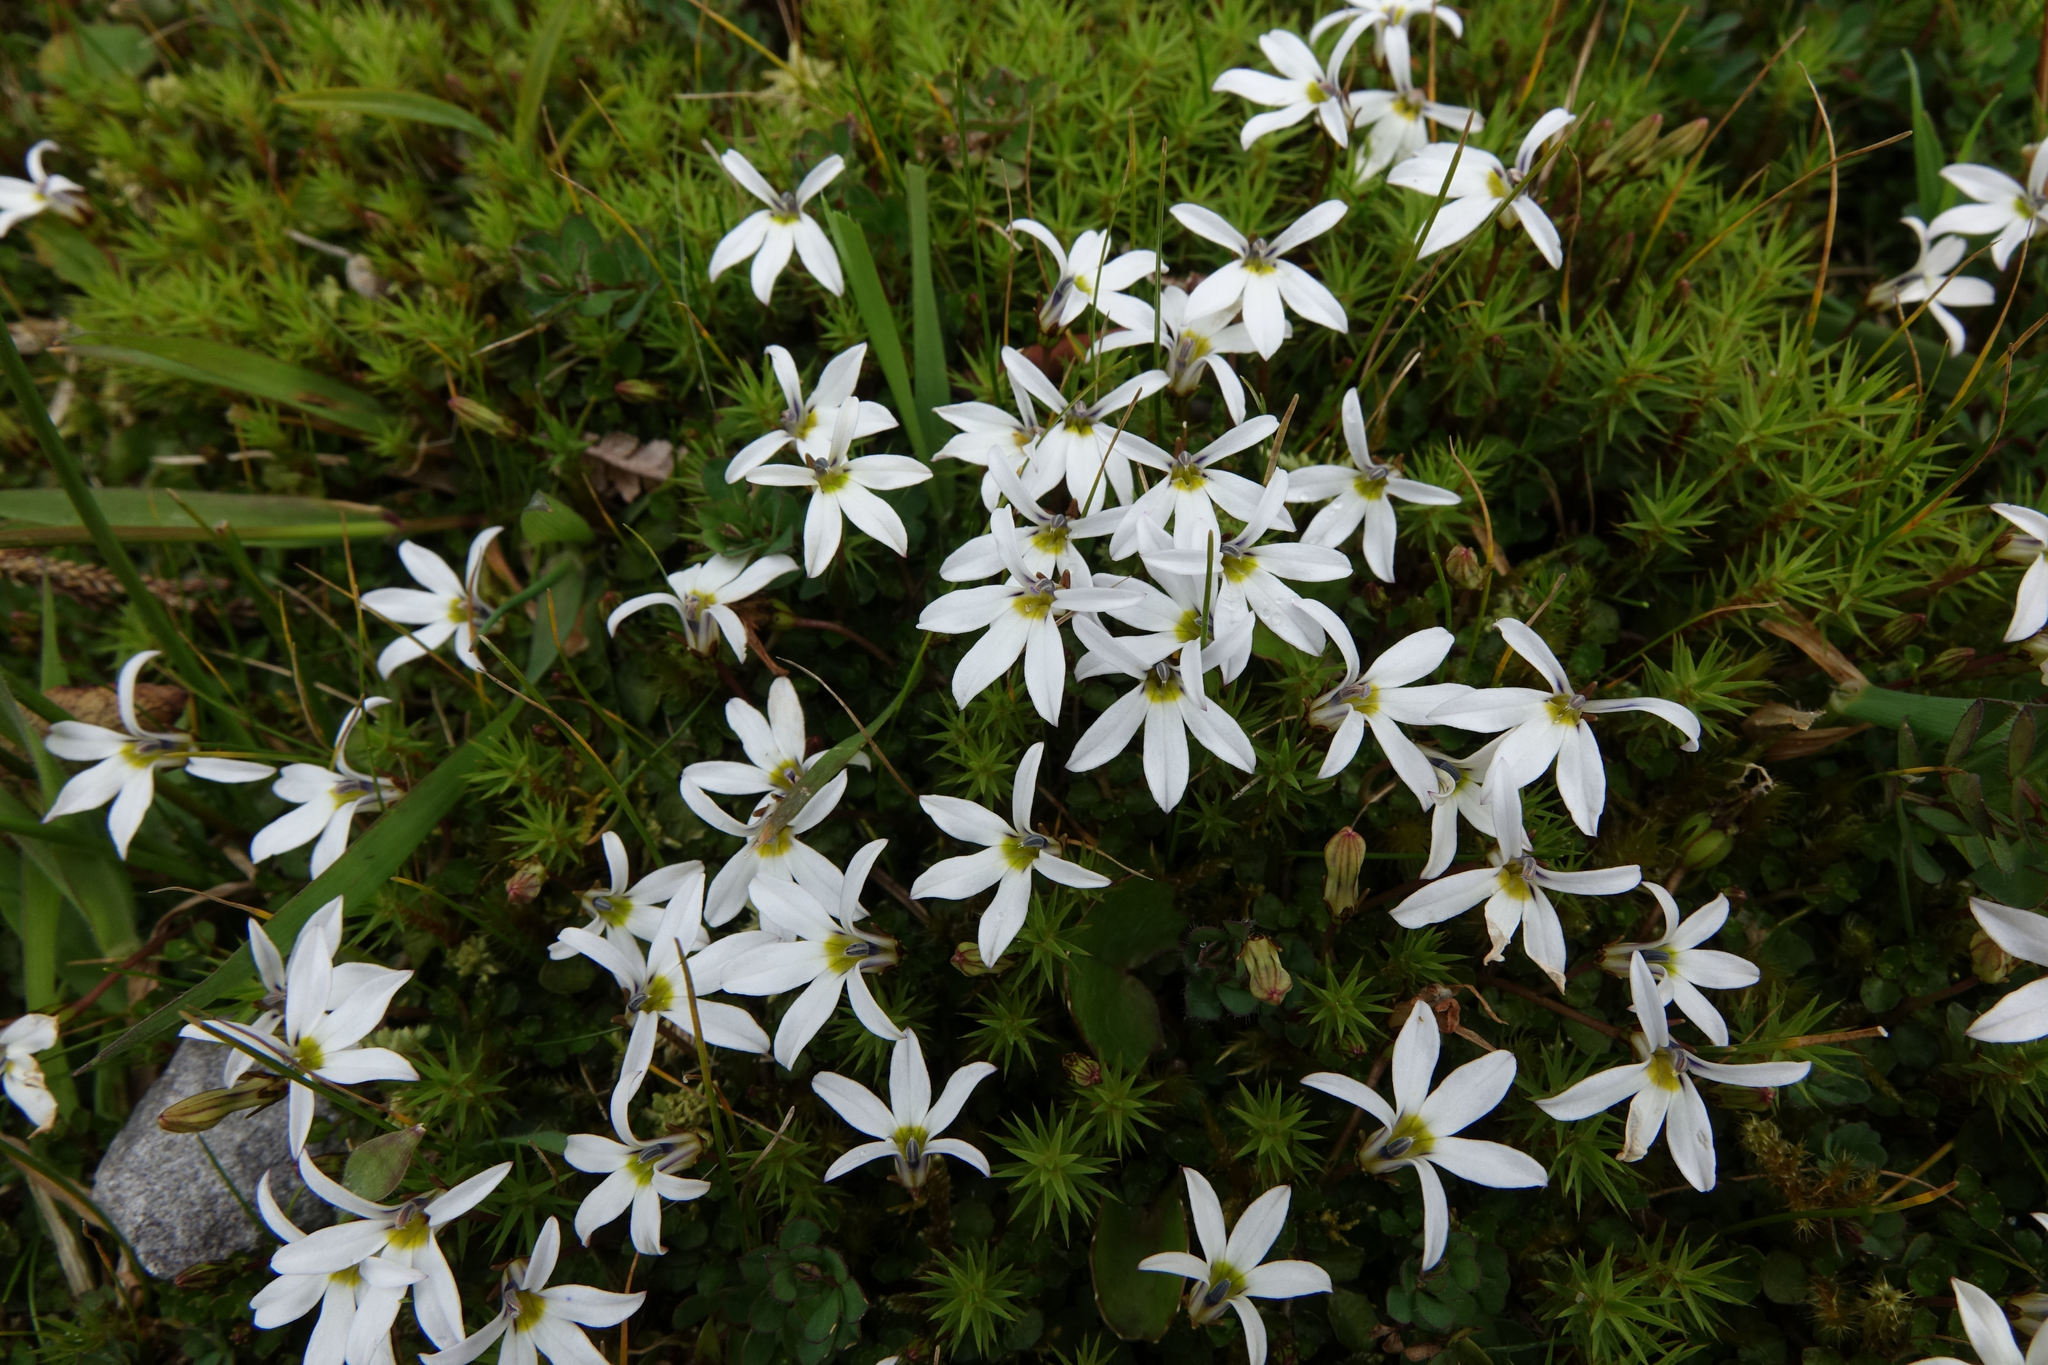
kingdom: Plantae
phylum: Tracheophyta
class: Magnoliopsida
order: Asterales
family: Campanulaceae
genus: Lobelia
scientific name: Lobelia angulata
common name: Lawn lobelia
